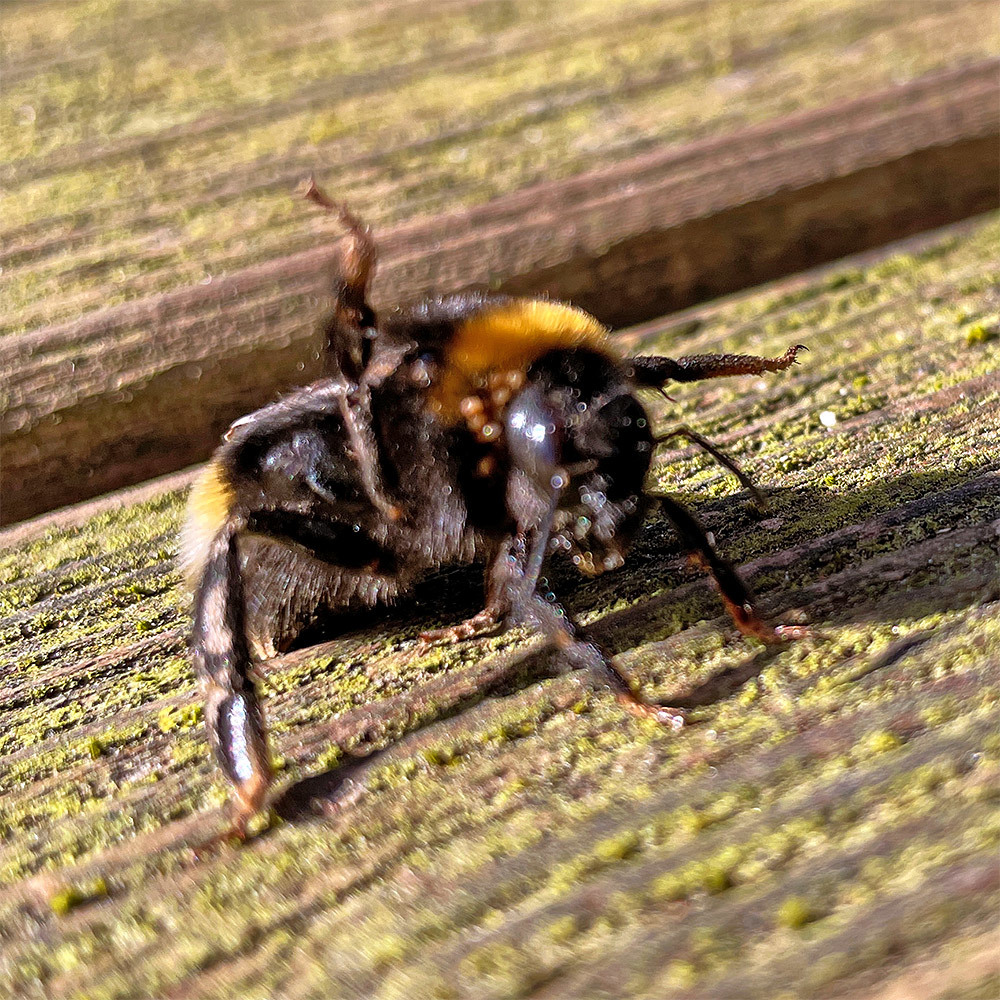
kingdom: Animalia
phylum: Arthropoda
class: Arachnida
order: Mesostigmata
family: Parasitidae
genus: Parasitellus
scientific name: Parasitellus fucorum
